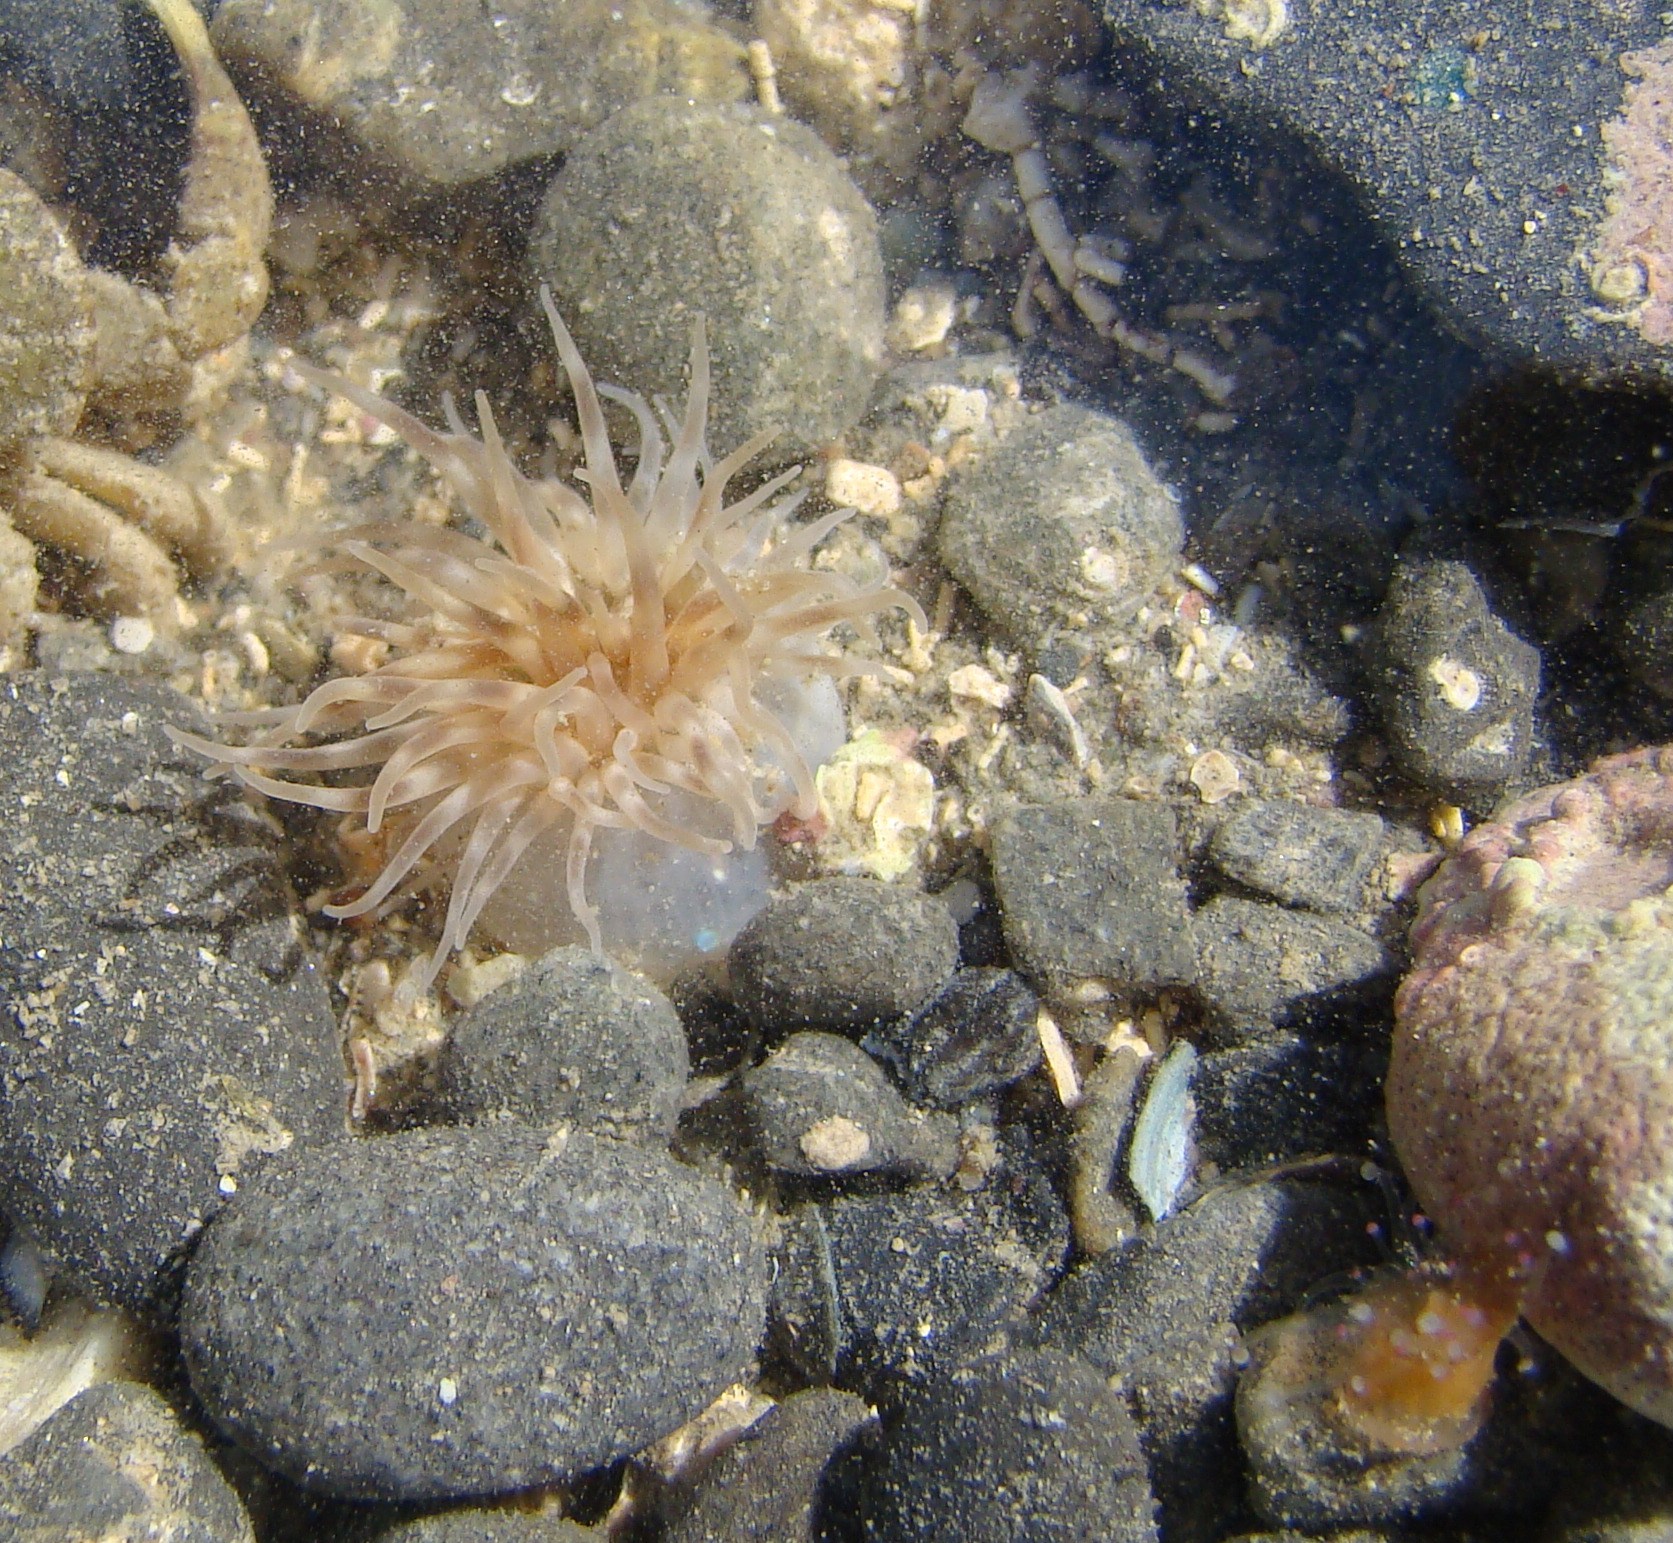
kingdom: Animalia
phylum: Cnidaria
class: Anthozoa
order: Actiniaria
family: Isanthidae
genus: Isoparactis
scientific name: Isoparactis ferax
